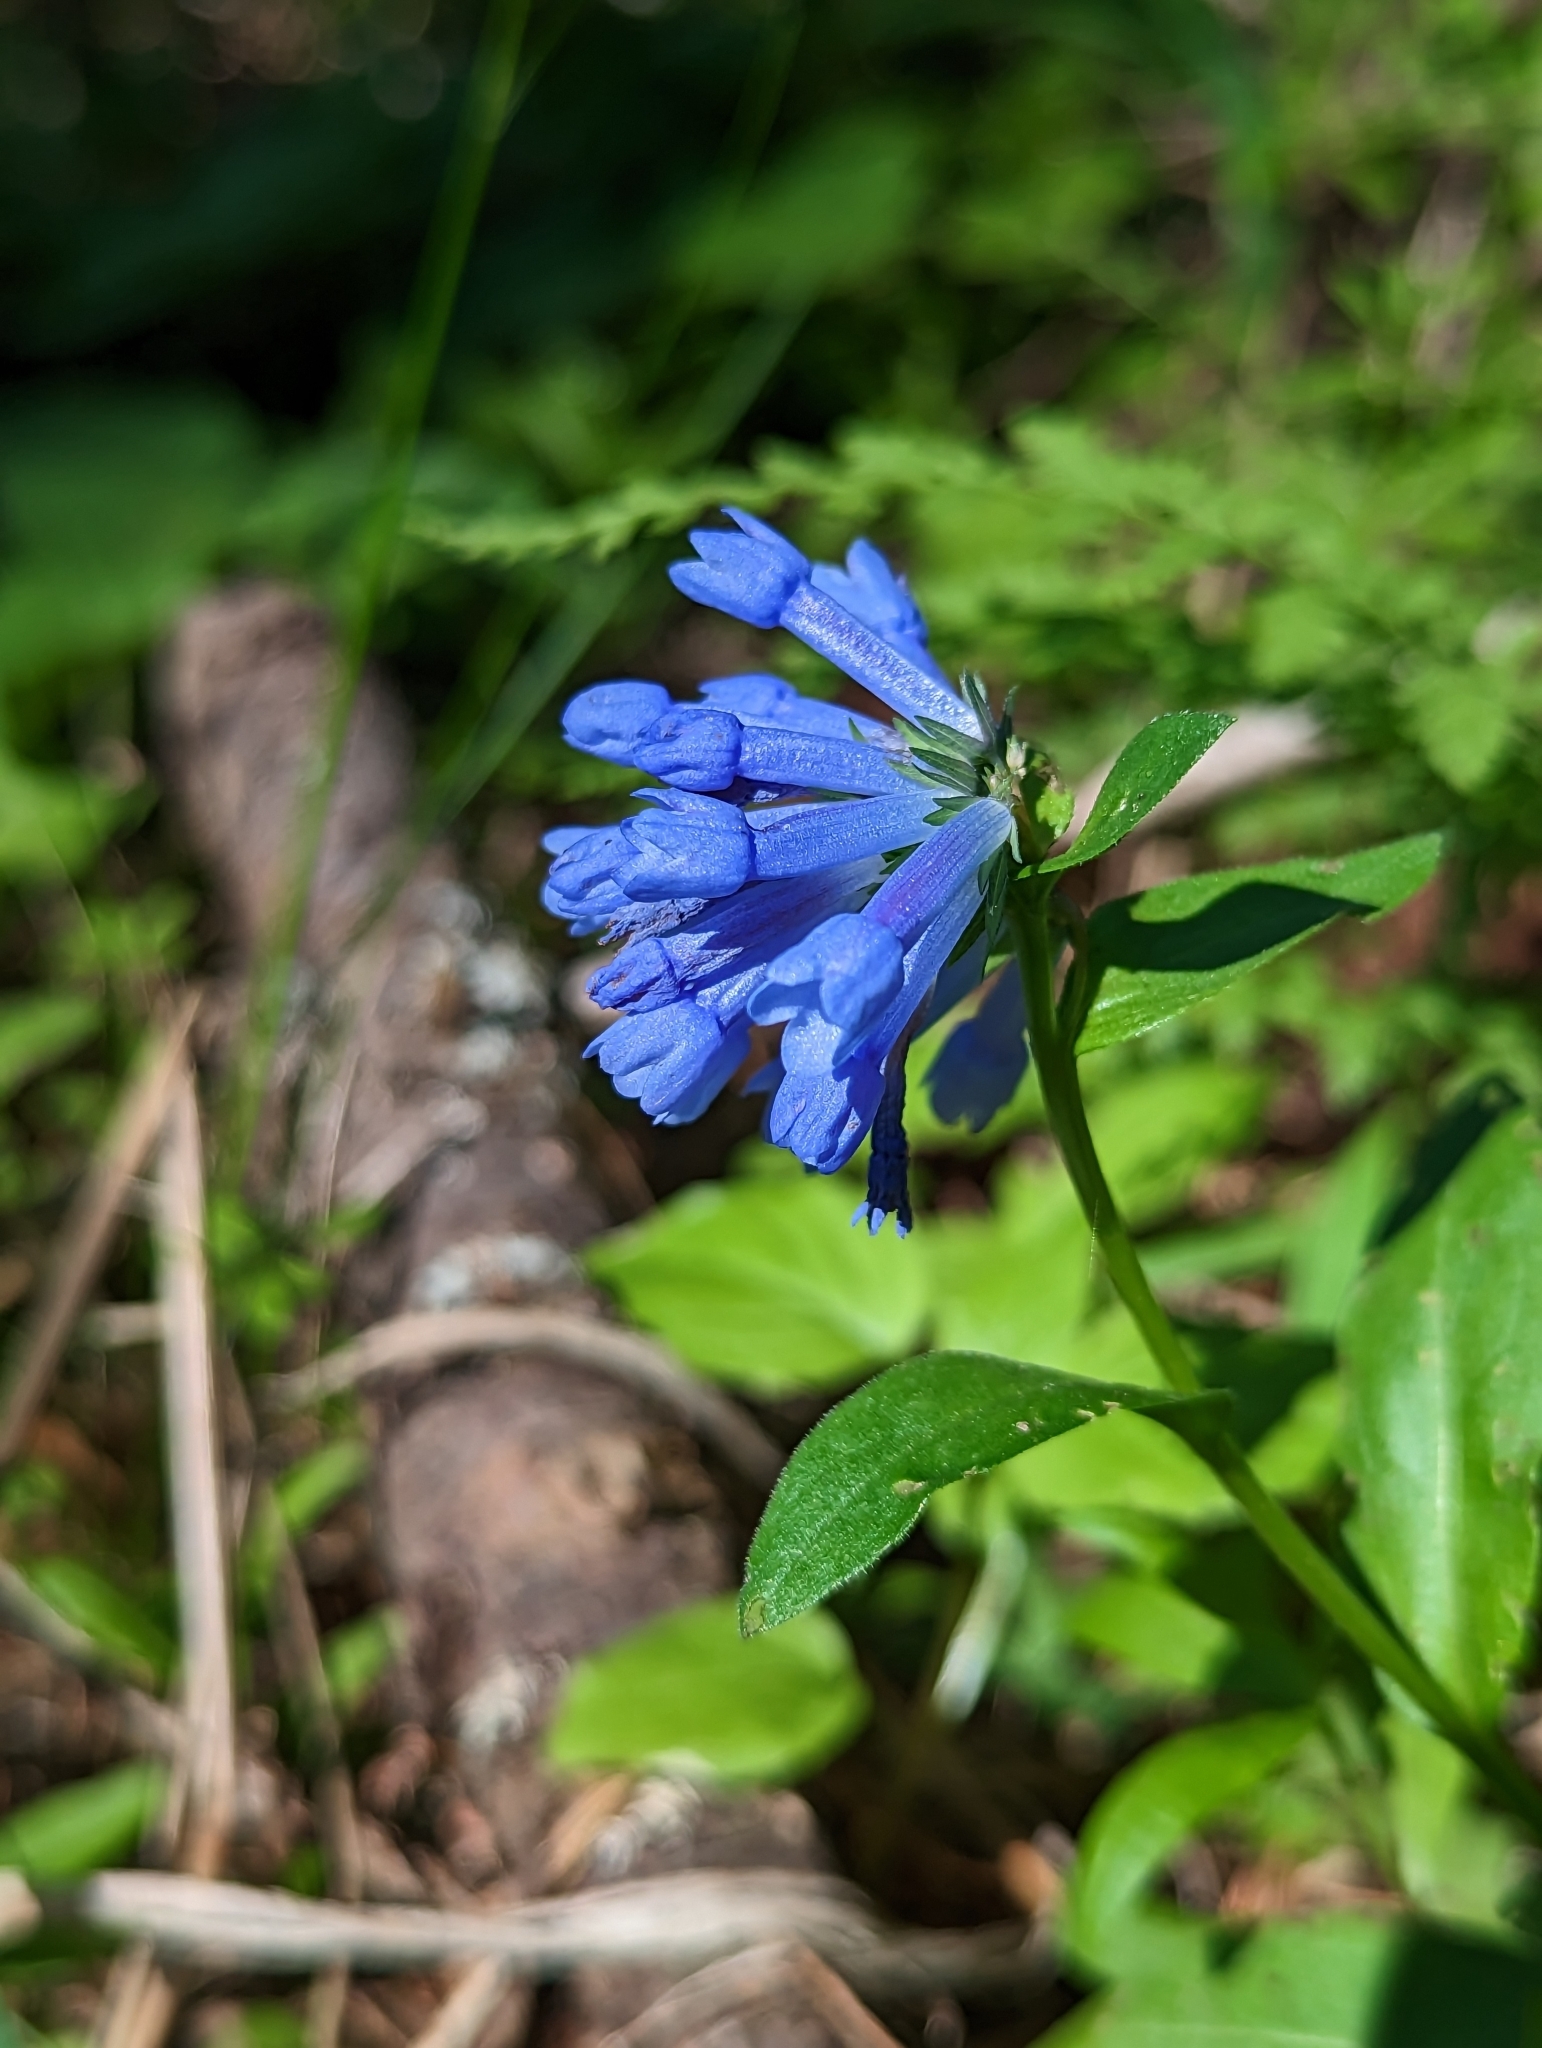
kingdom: Plantae
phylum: Tracheophyta
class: Magnoliopsida
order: Boraginales
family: Boraginaceae
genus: Mertensia
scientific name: Mertensia longiflora
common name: Large-flowered bluebells
